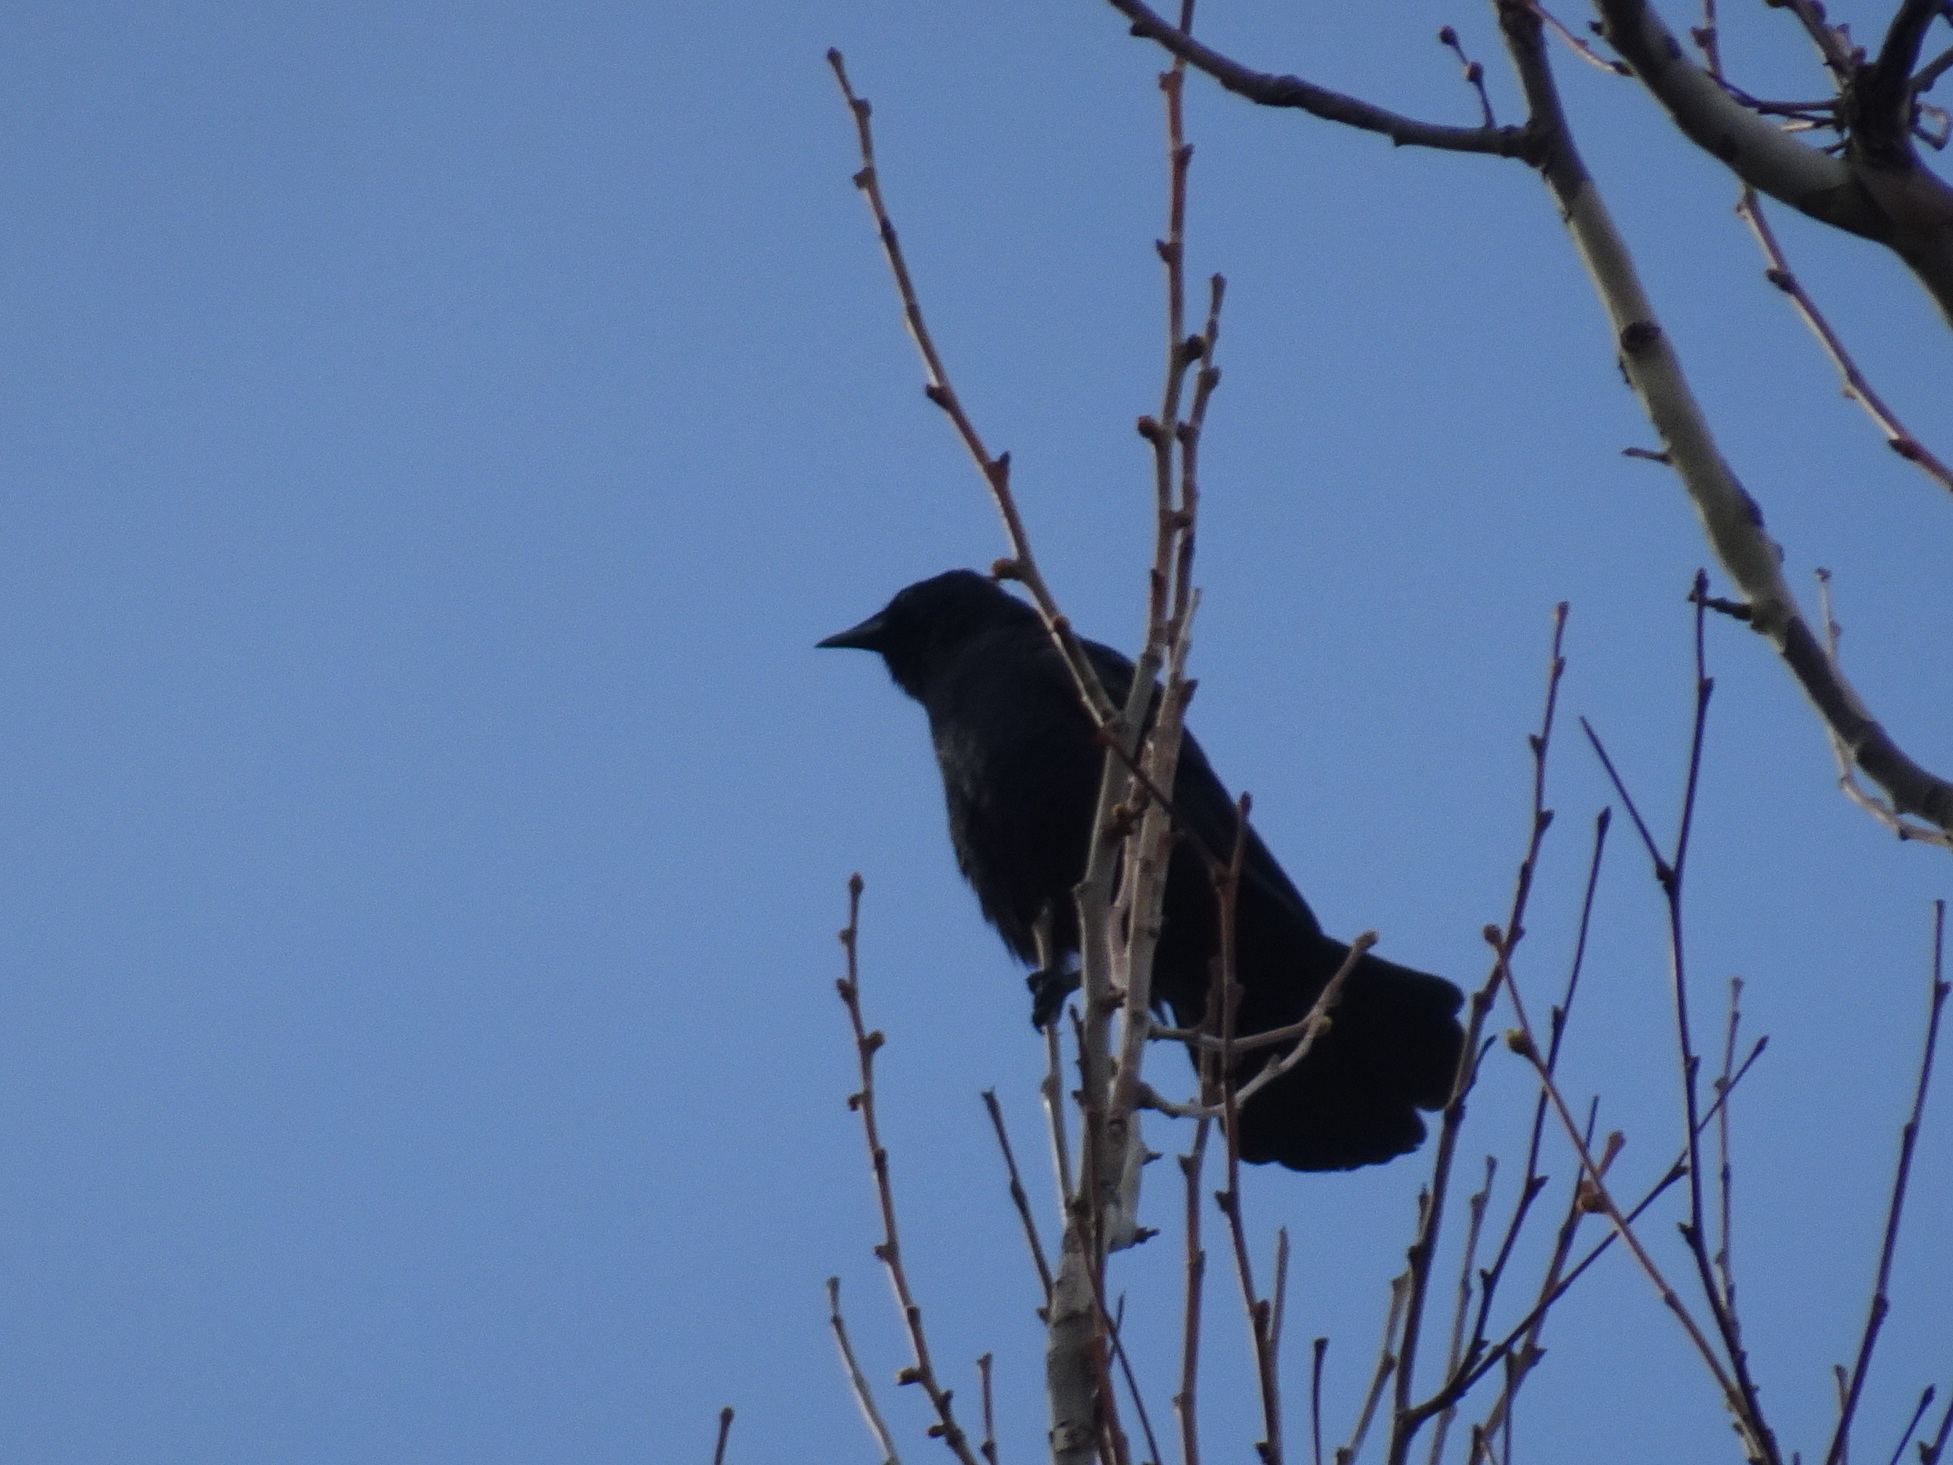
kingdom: Animalia
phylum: Chordata
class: Aves
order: Passeriformes
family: Corvidae
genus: Corvus
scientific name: Corvus ossifragus
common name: Fish crow
